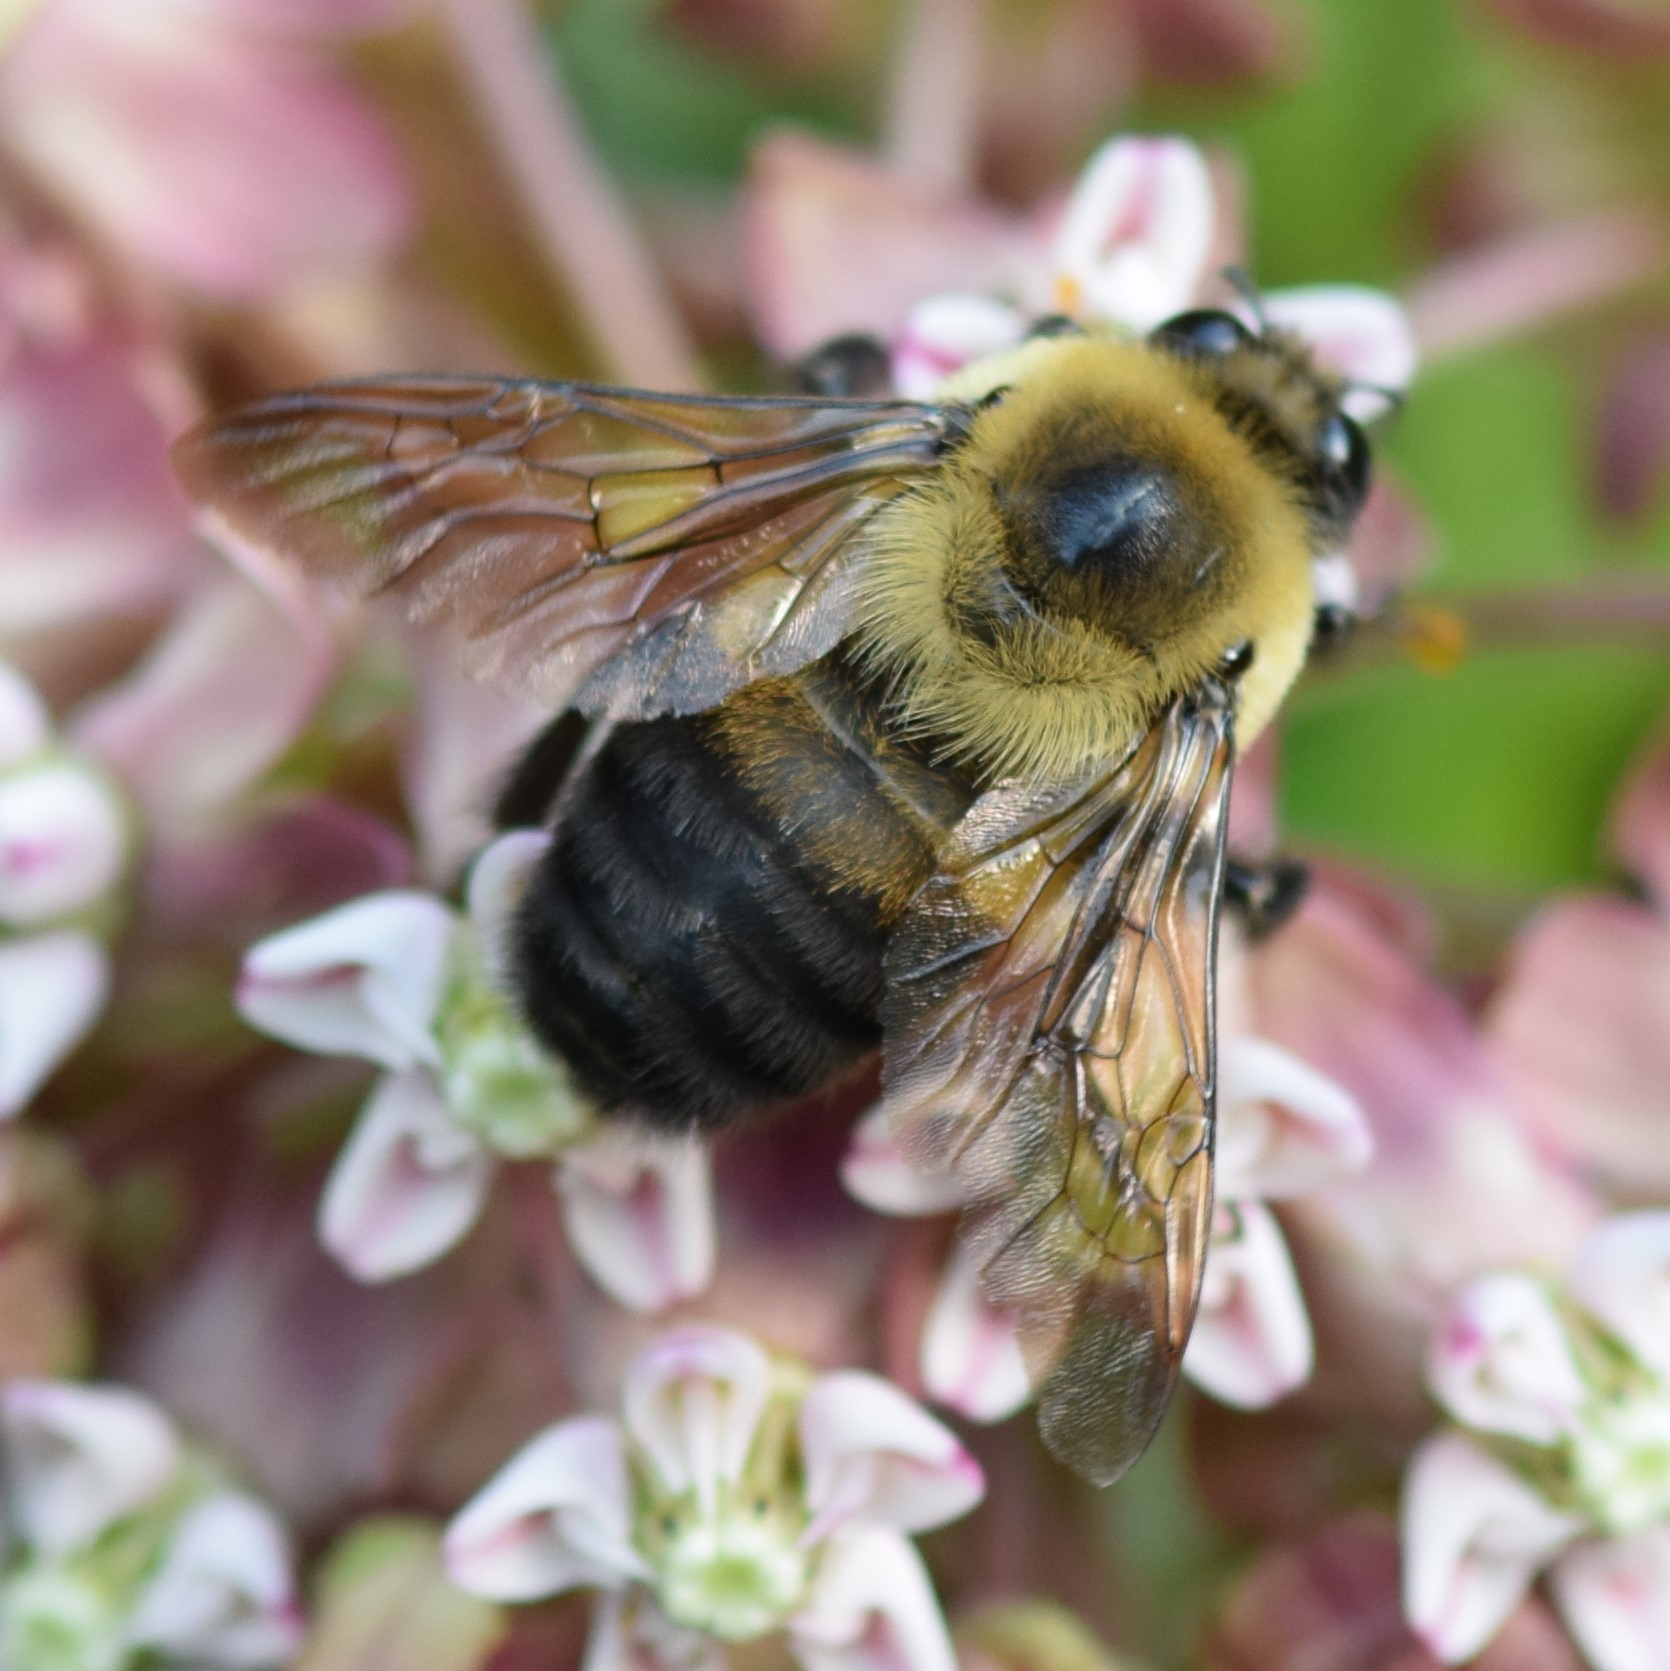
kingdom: Animalia
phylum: Arthropoda
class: Insecta
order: Hymenoptera
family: Apidae
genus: Bombus
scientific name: Bombus griseocollis
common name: Brown-belted bumble bee
